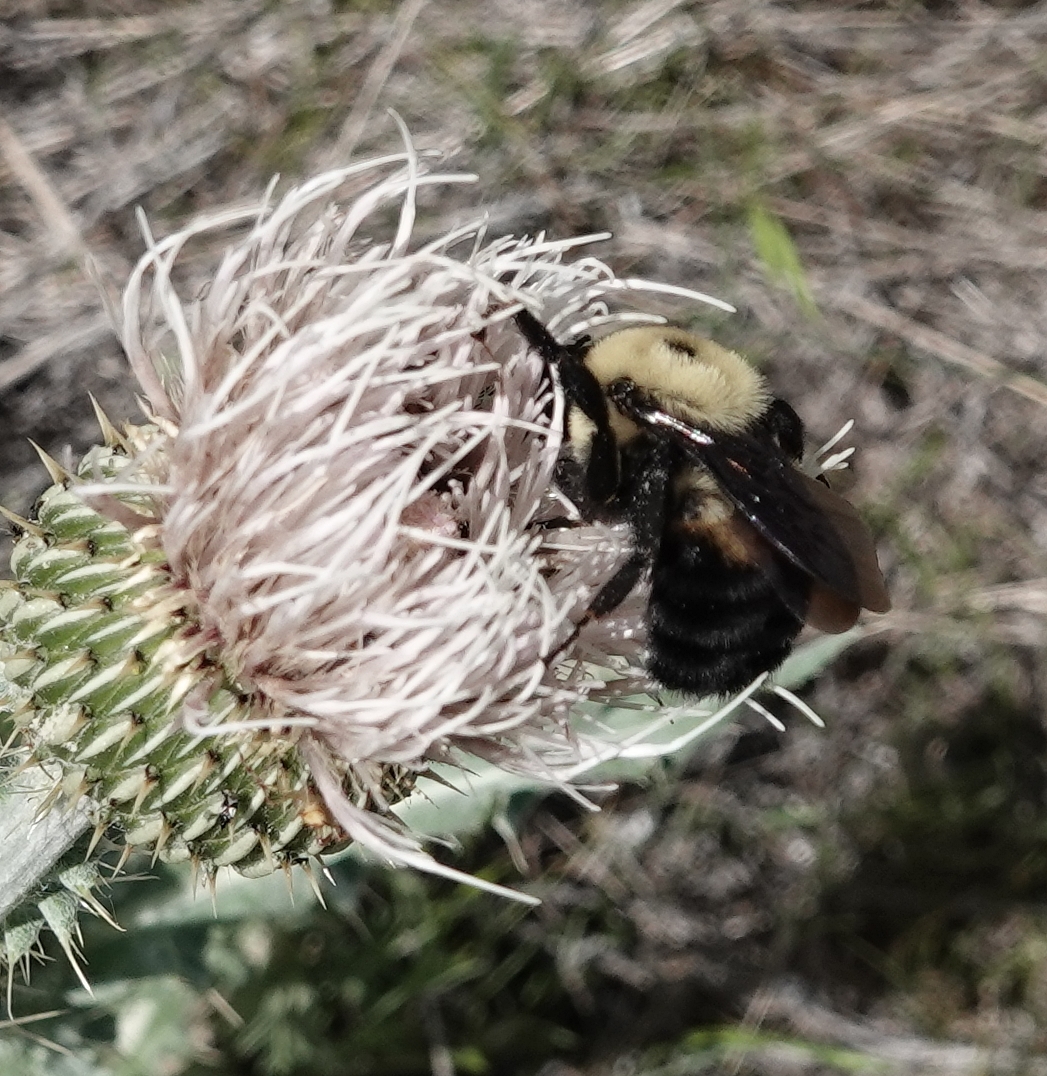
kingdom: Animalia
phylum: Arthropoda
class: Insecta
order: Hymenoptera
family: Apidae
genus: Bombus
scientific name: Bombus griseocollis
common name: Brown-belted bumble bee
